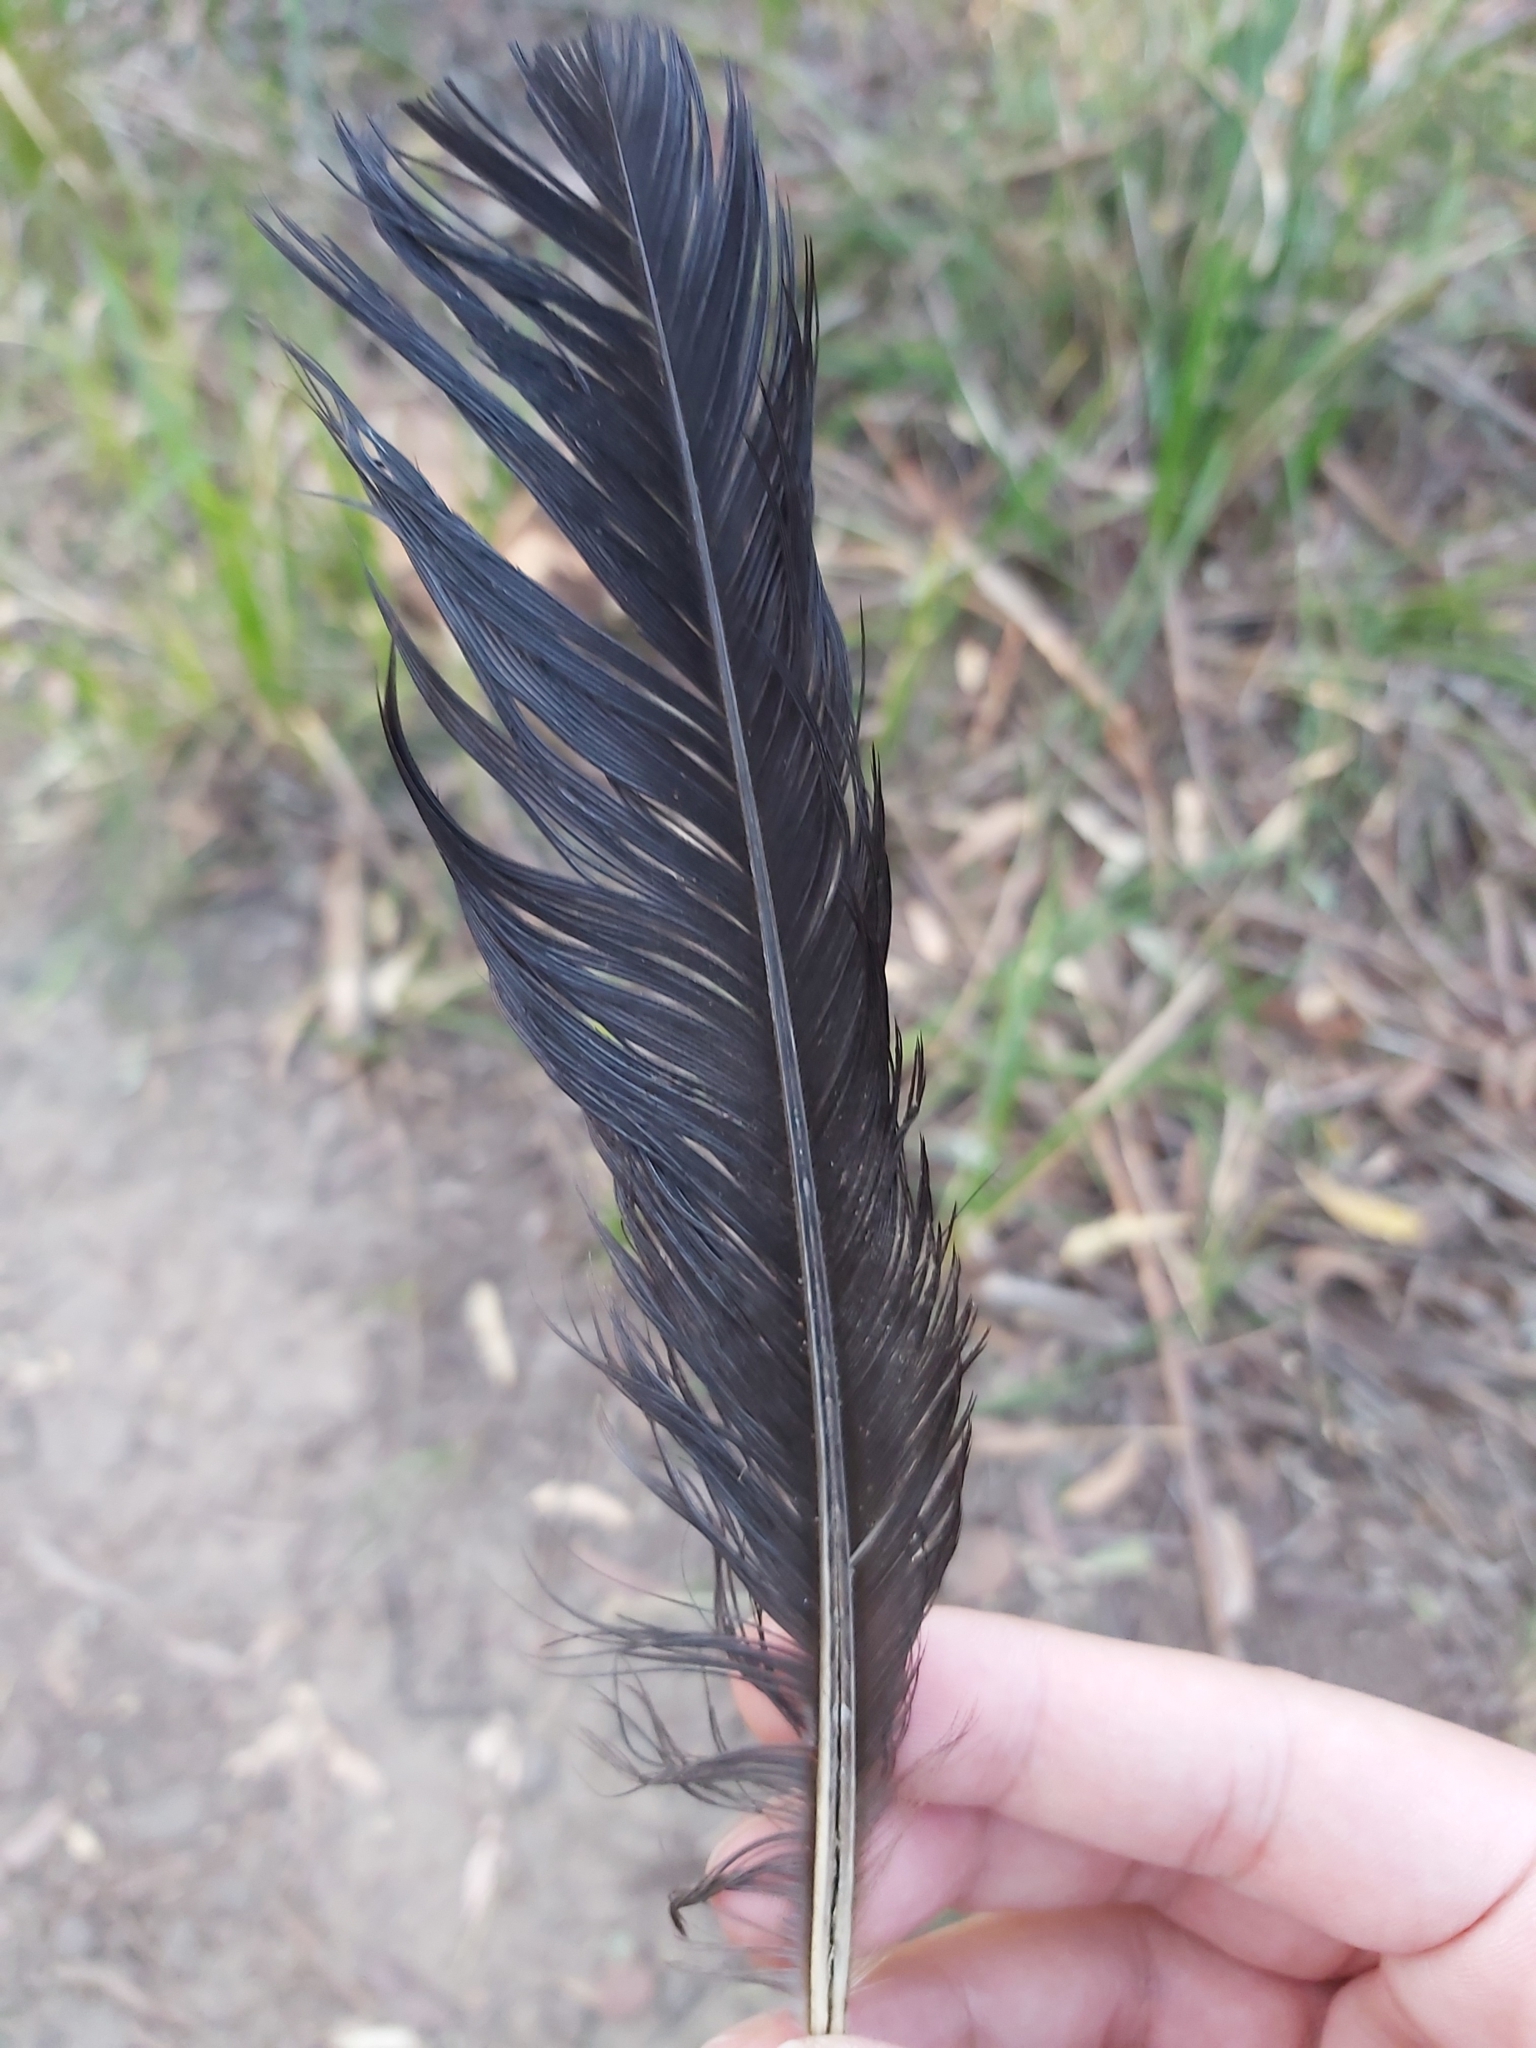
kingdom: Animalia
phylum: Chordata
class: Aves
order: Galliformes
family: Megapodiidae
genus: Alectura
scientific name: Alectura lathami
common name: Australian brushturkey
